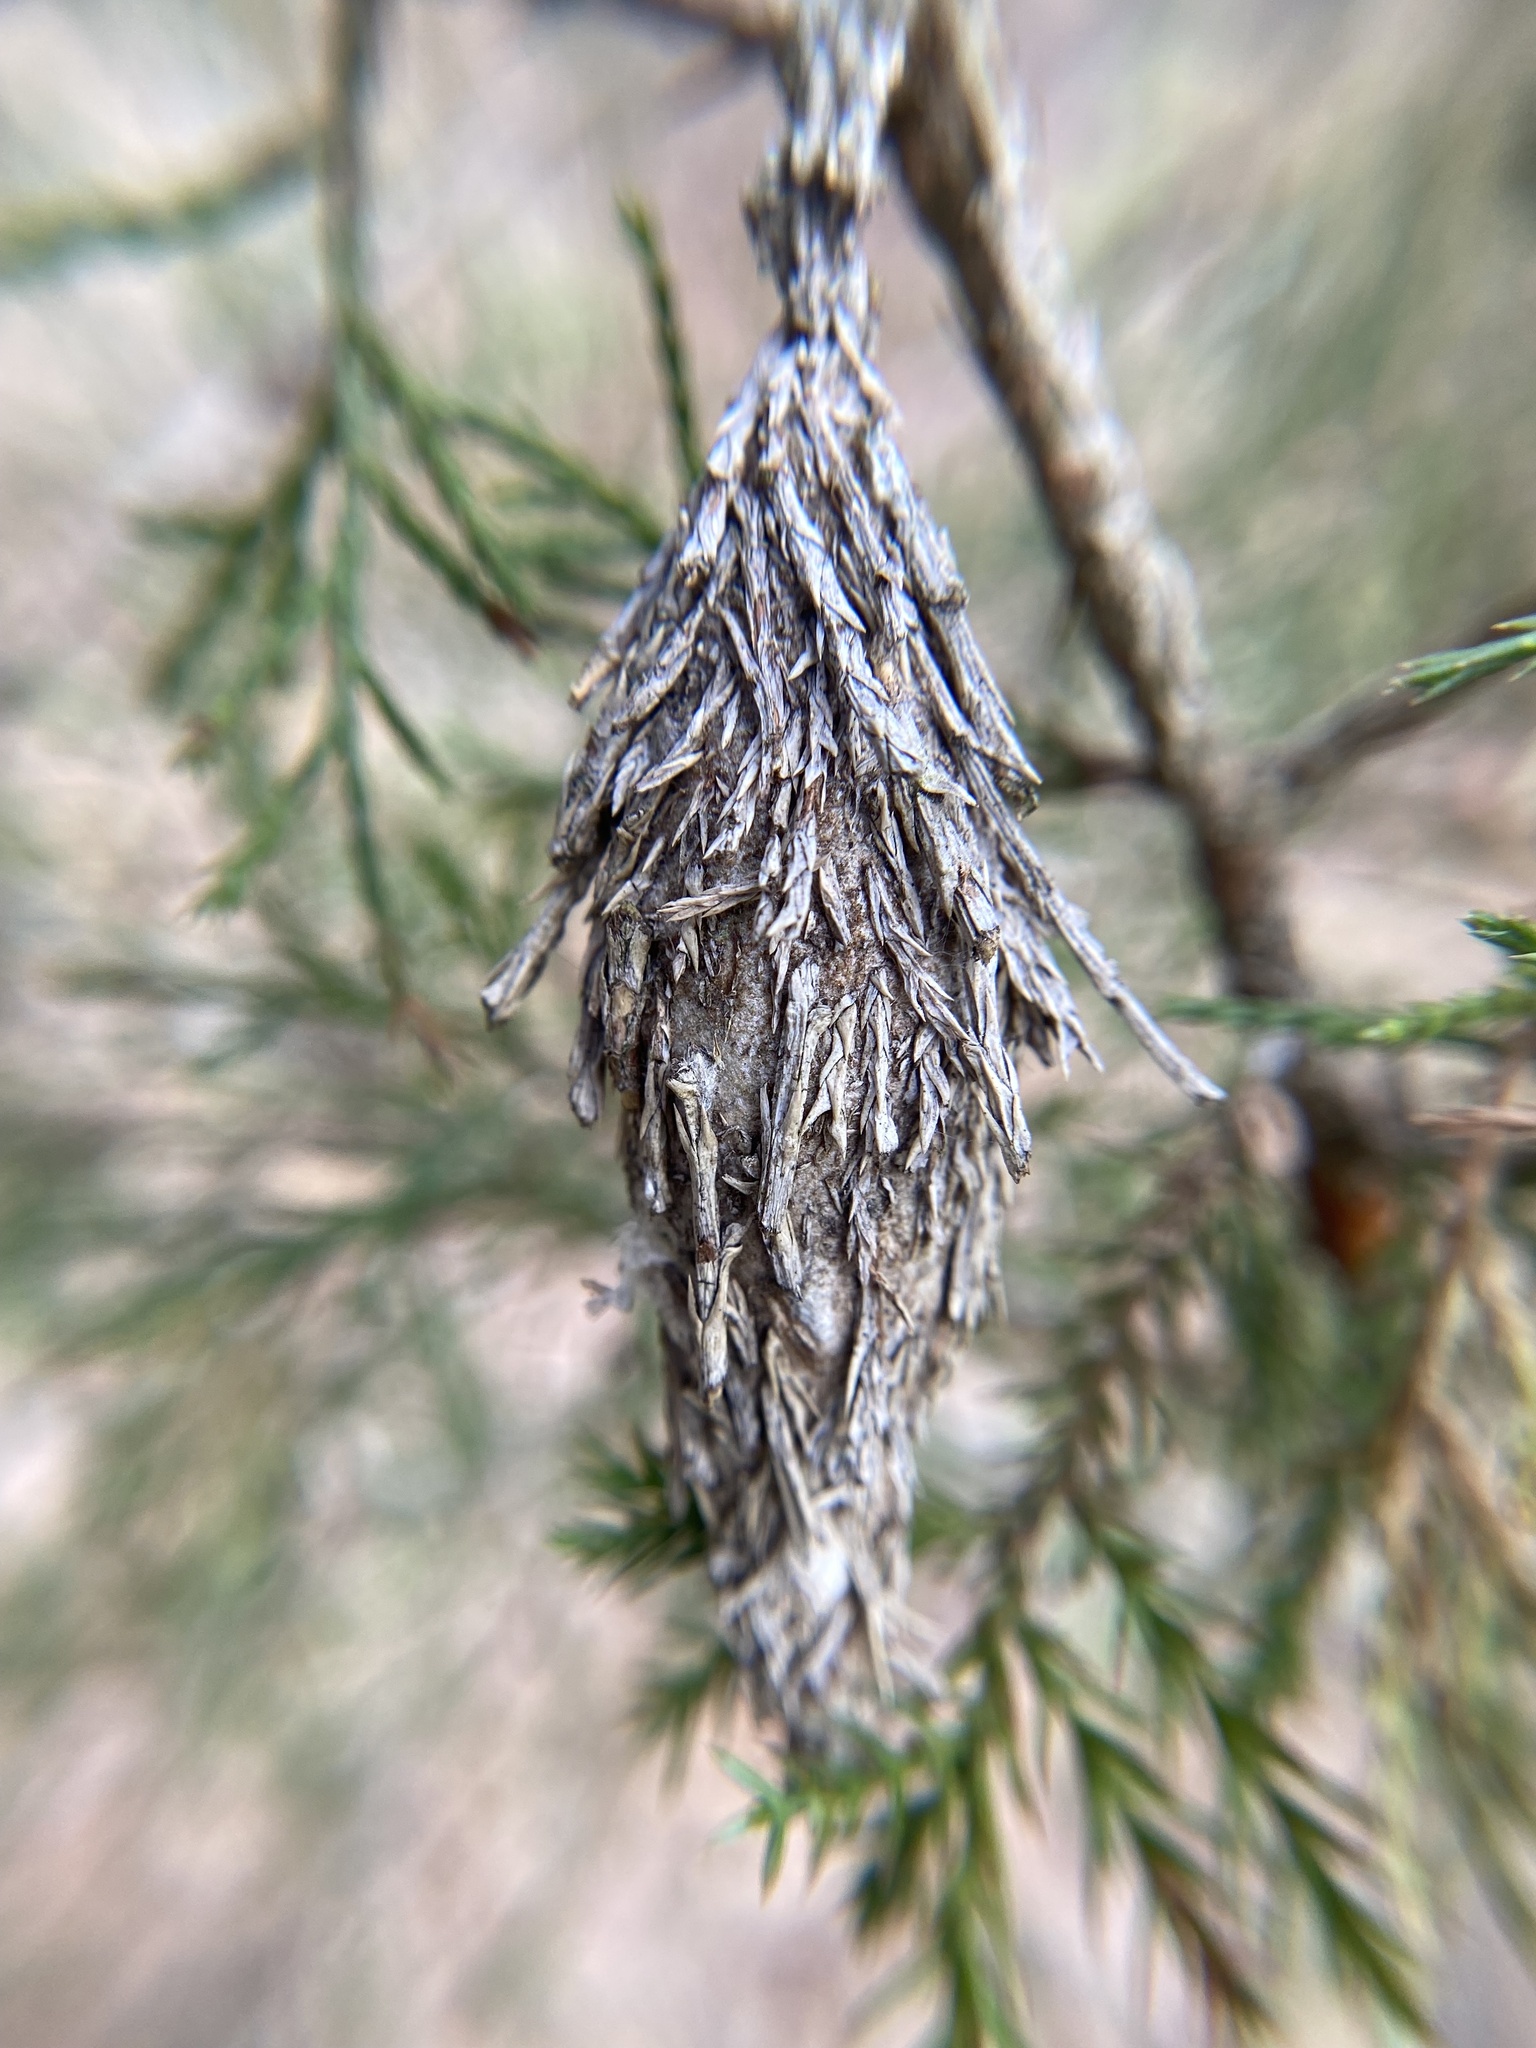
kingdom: Animalia
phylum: Arthropoda
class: Insecta
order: Lepidoptera
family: Psychidae
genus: Thyridopteryx
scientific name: Thyridopteryx ephemeraeformis
